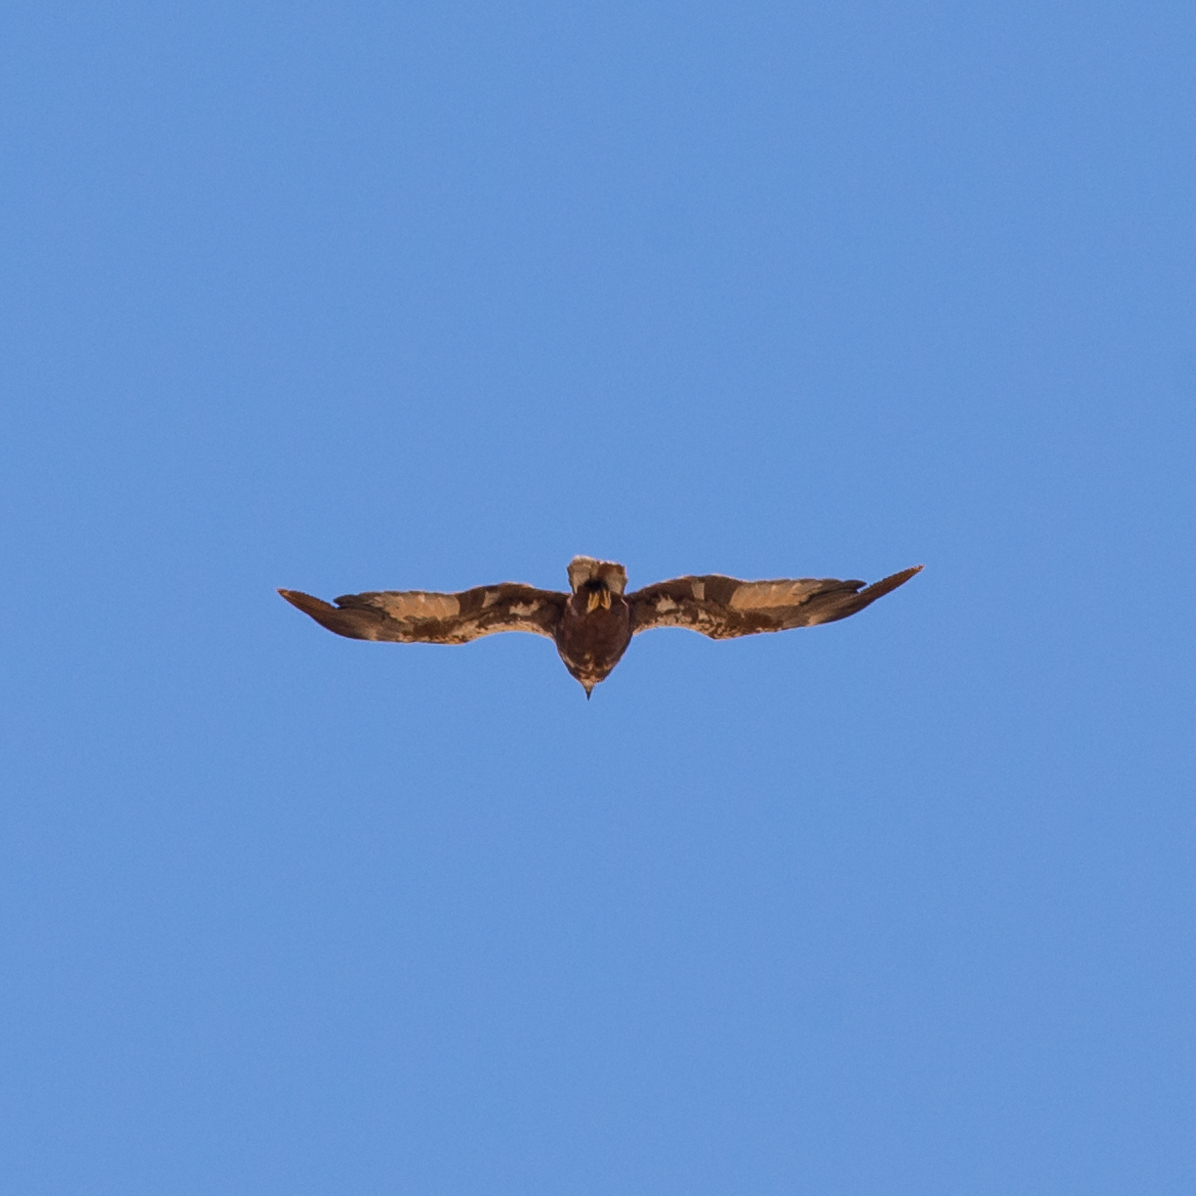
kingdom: Animalia
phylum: Chordata
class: Aves
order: Accipitriformes
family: Accipitridae
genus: Circus
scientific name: Circus aeruginosus
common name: Western marsh harrier
